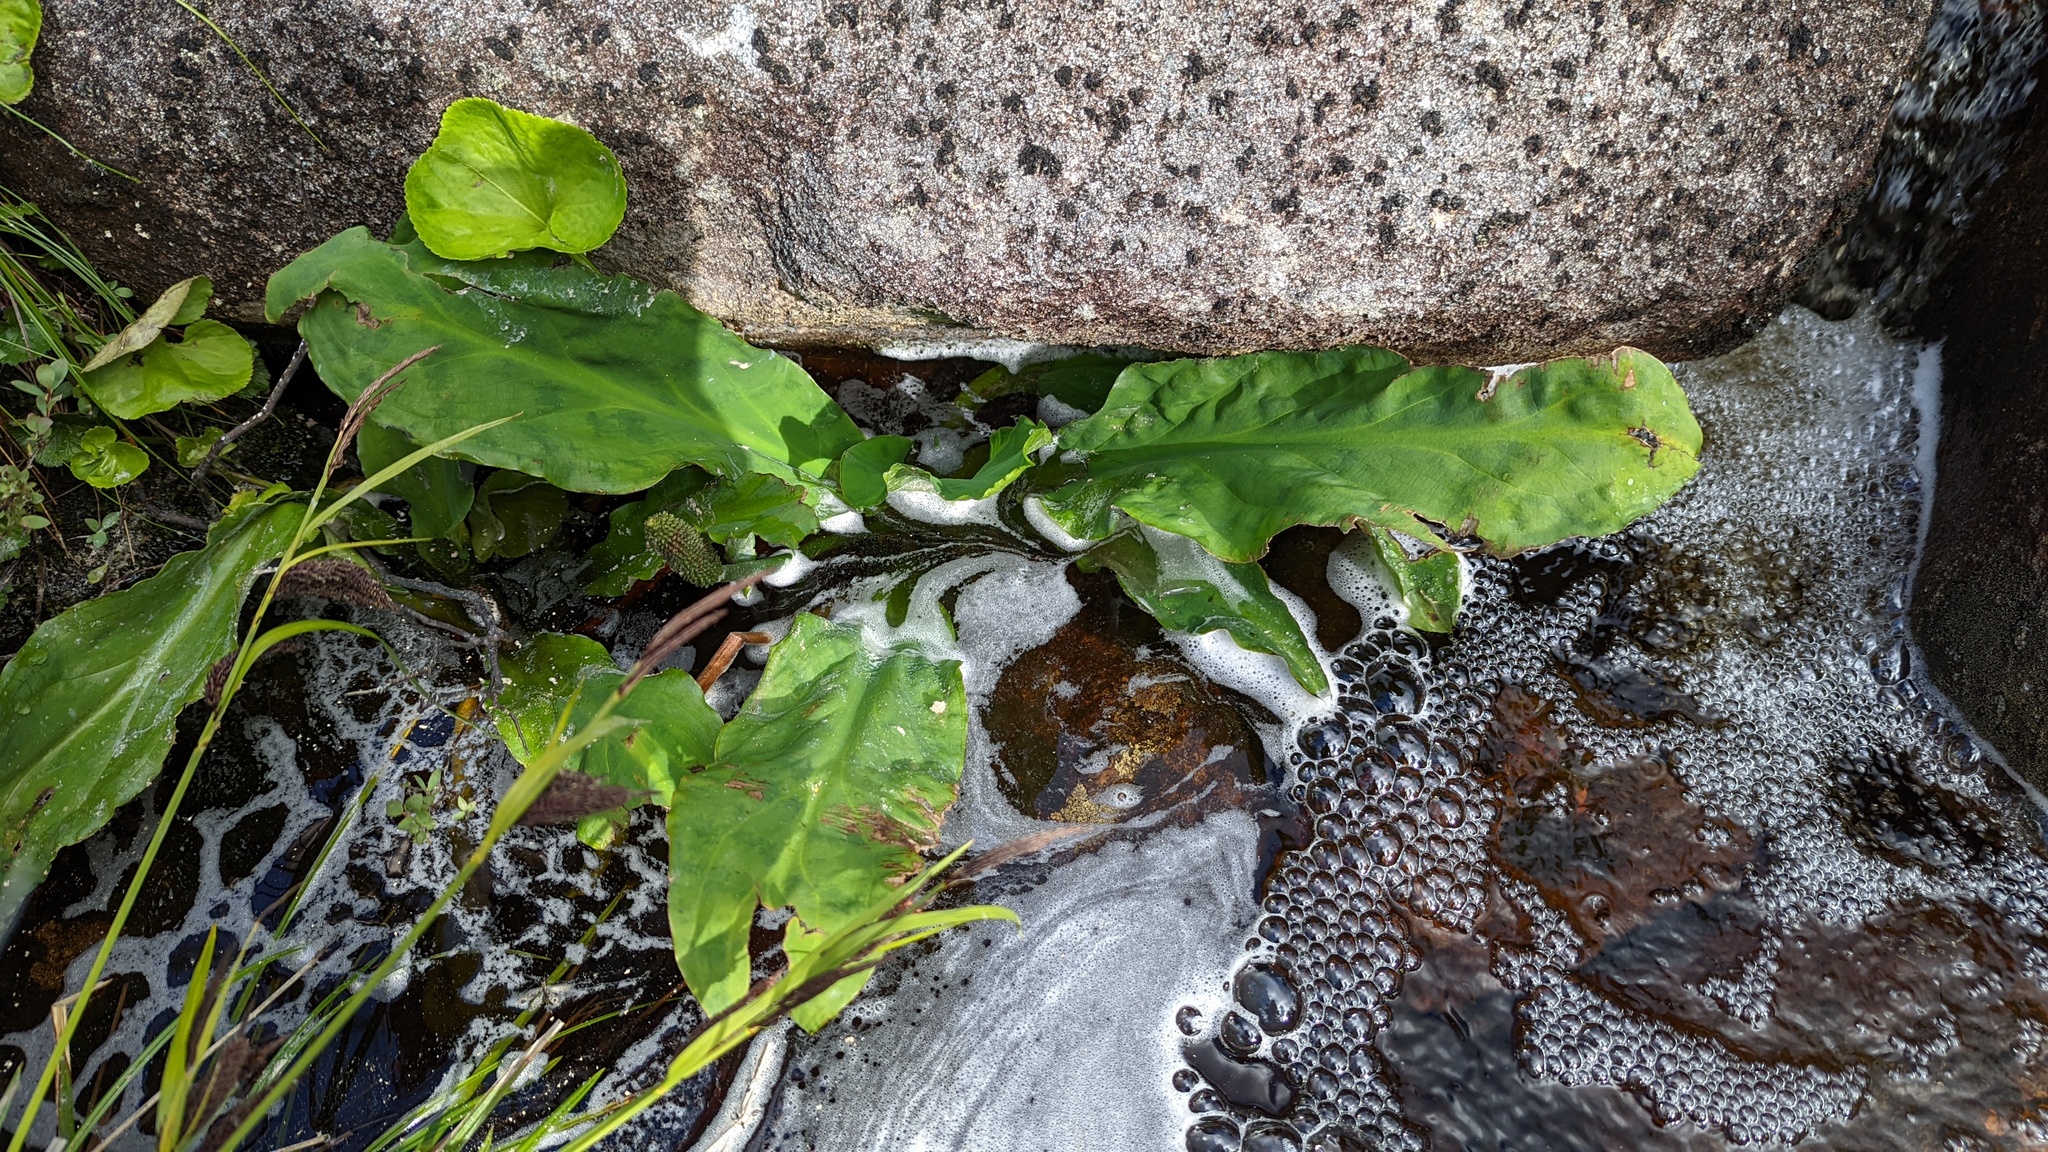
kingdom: Plantae
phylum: Tracheophyta
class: Liliopsida
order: Alismatales
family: Araceae
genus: Lysichiton
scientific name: Lysichiton americanus
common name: American skunk cabbage
